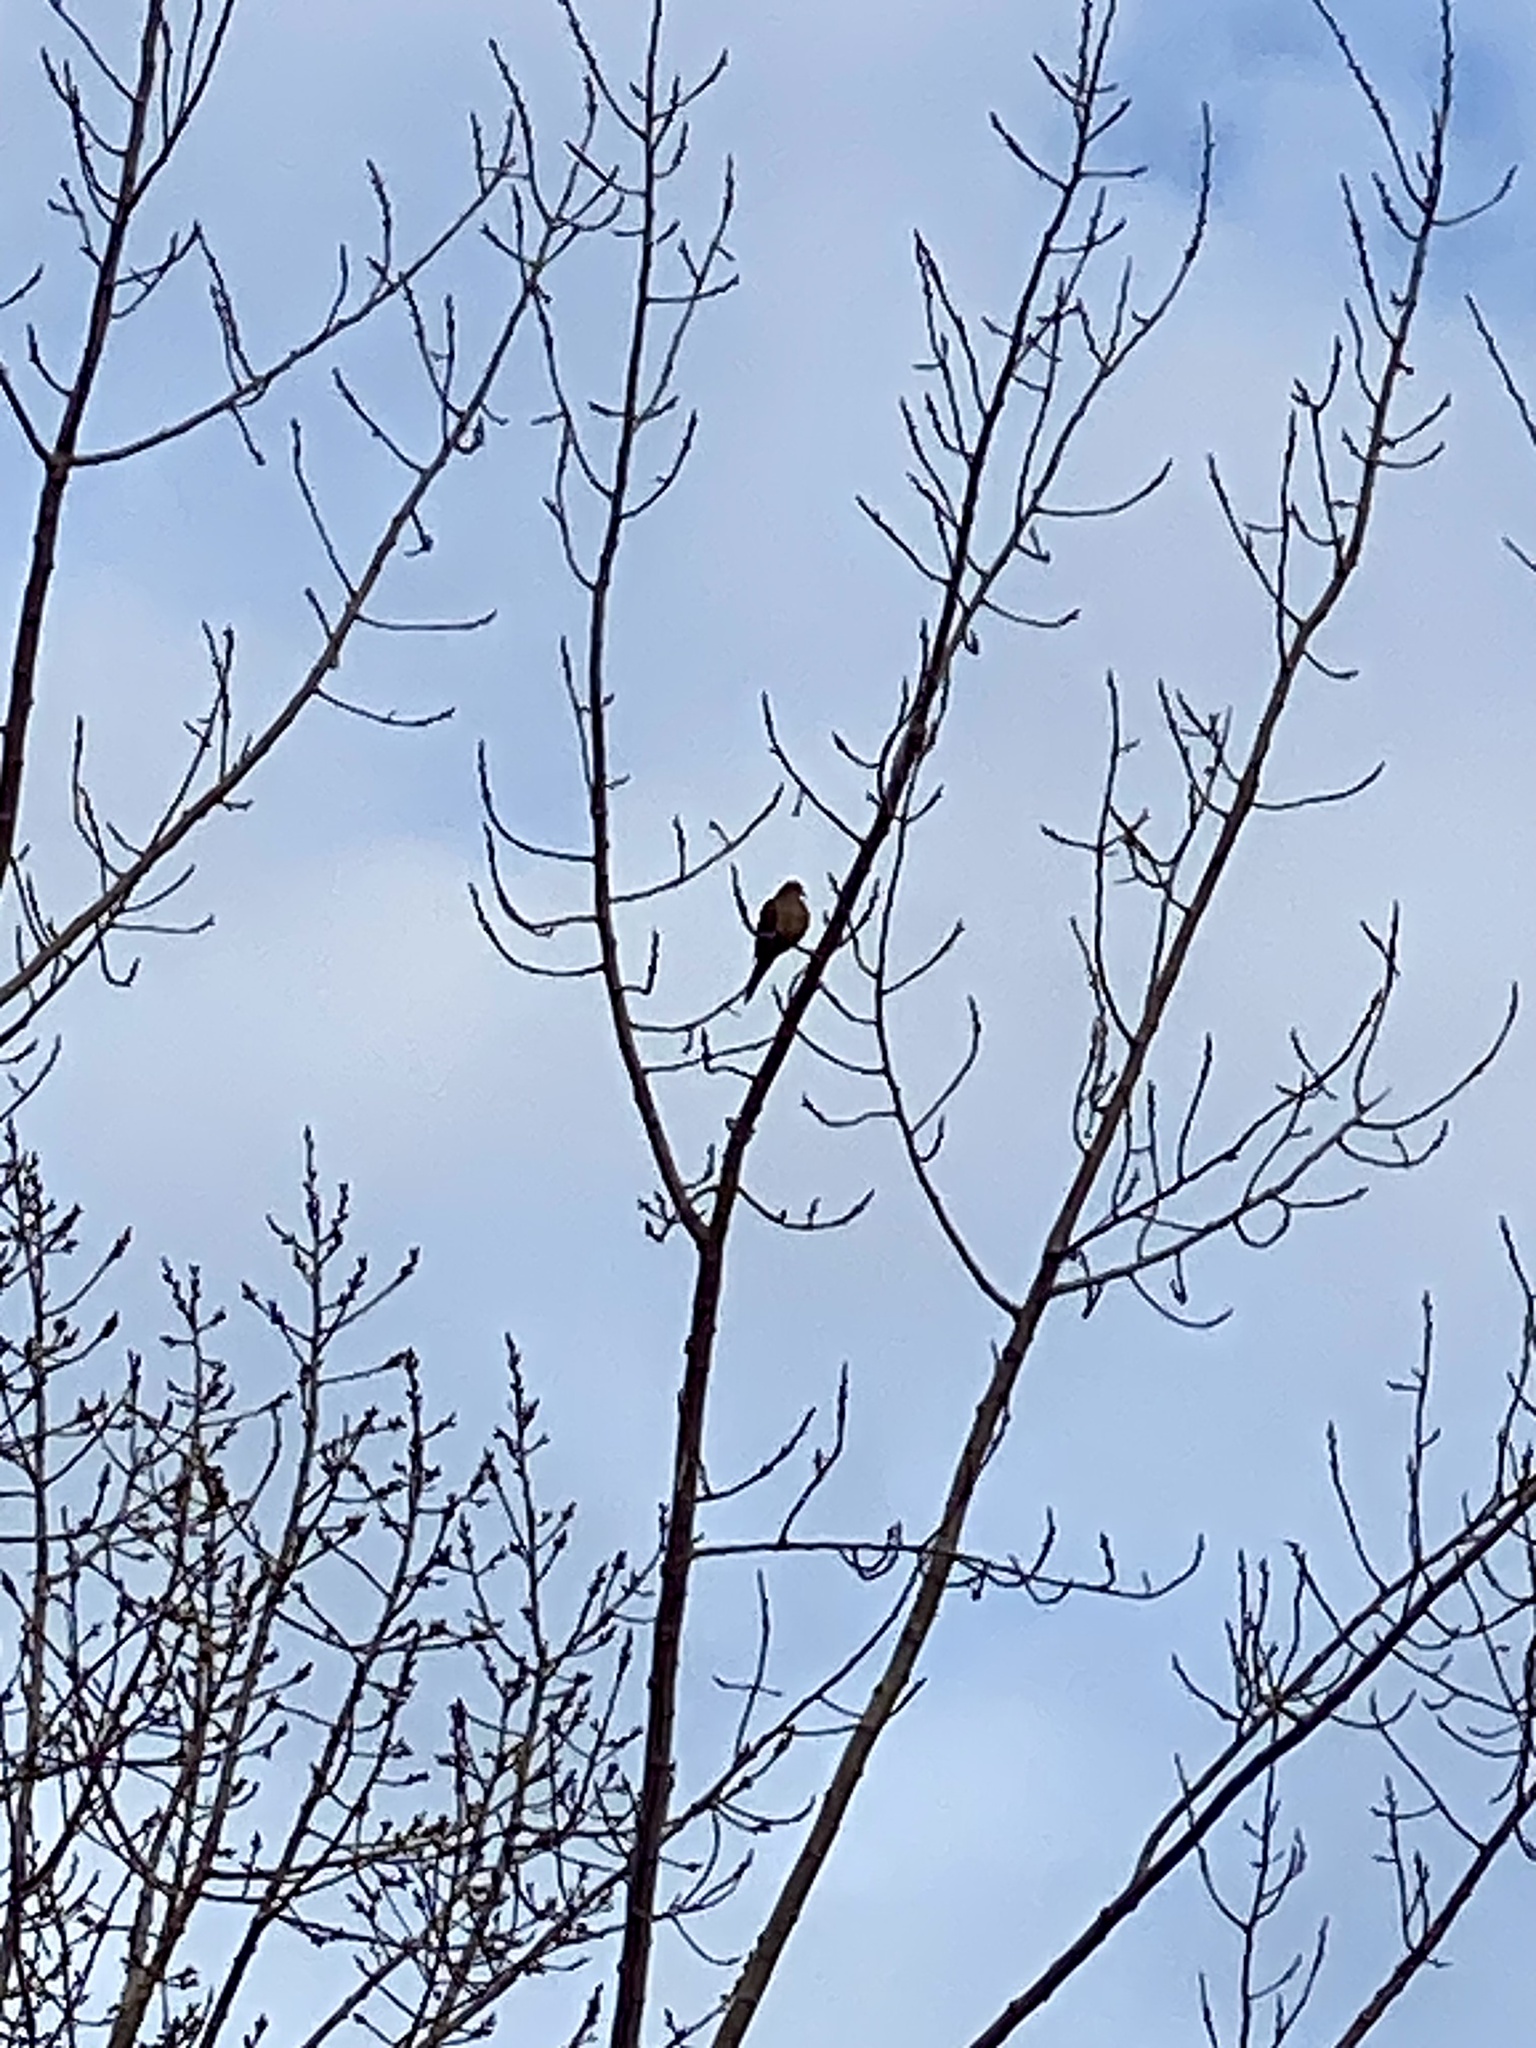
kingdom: Animalia
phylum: Chordata
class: Aves
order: Columbiformes
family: Columbidae
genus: Zenaida
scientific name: Zenaida macroura
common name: Mourning dove
